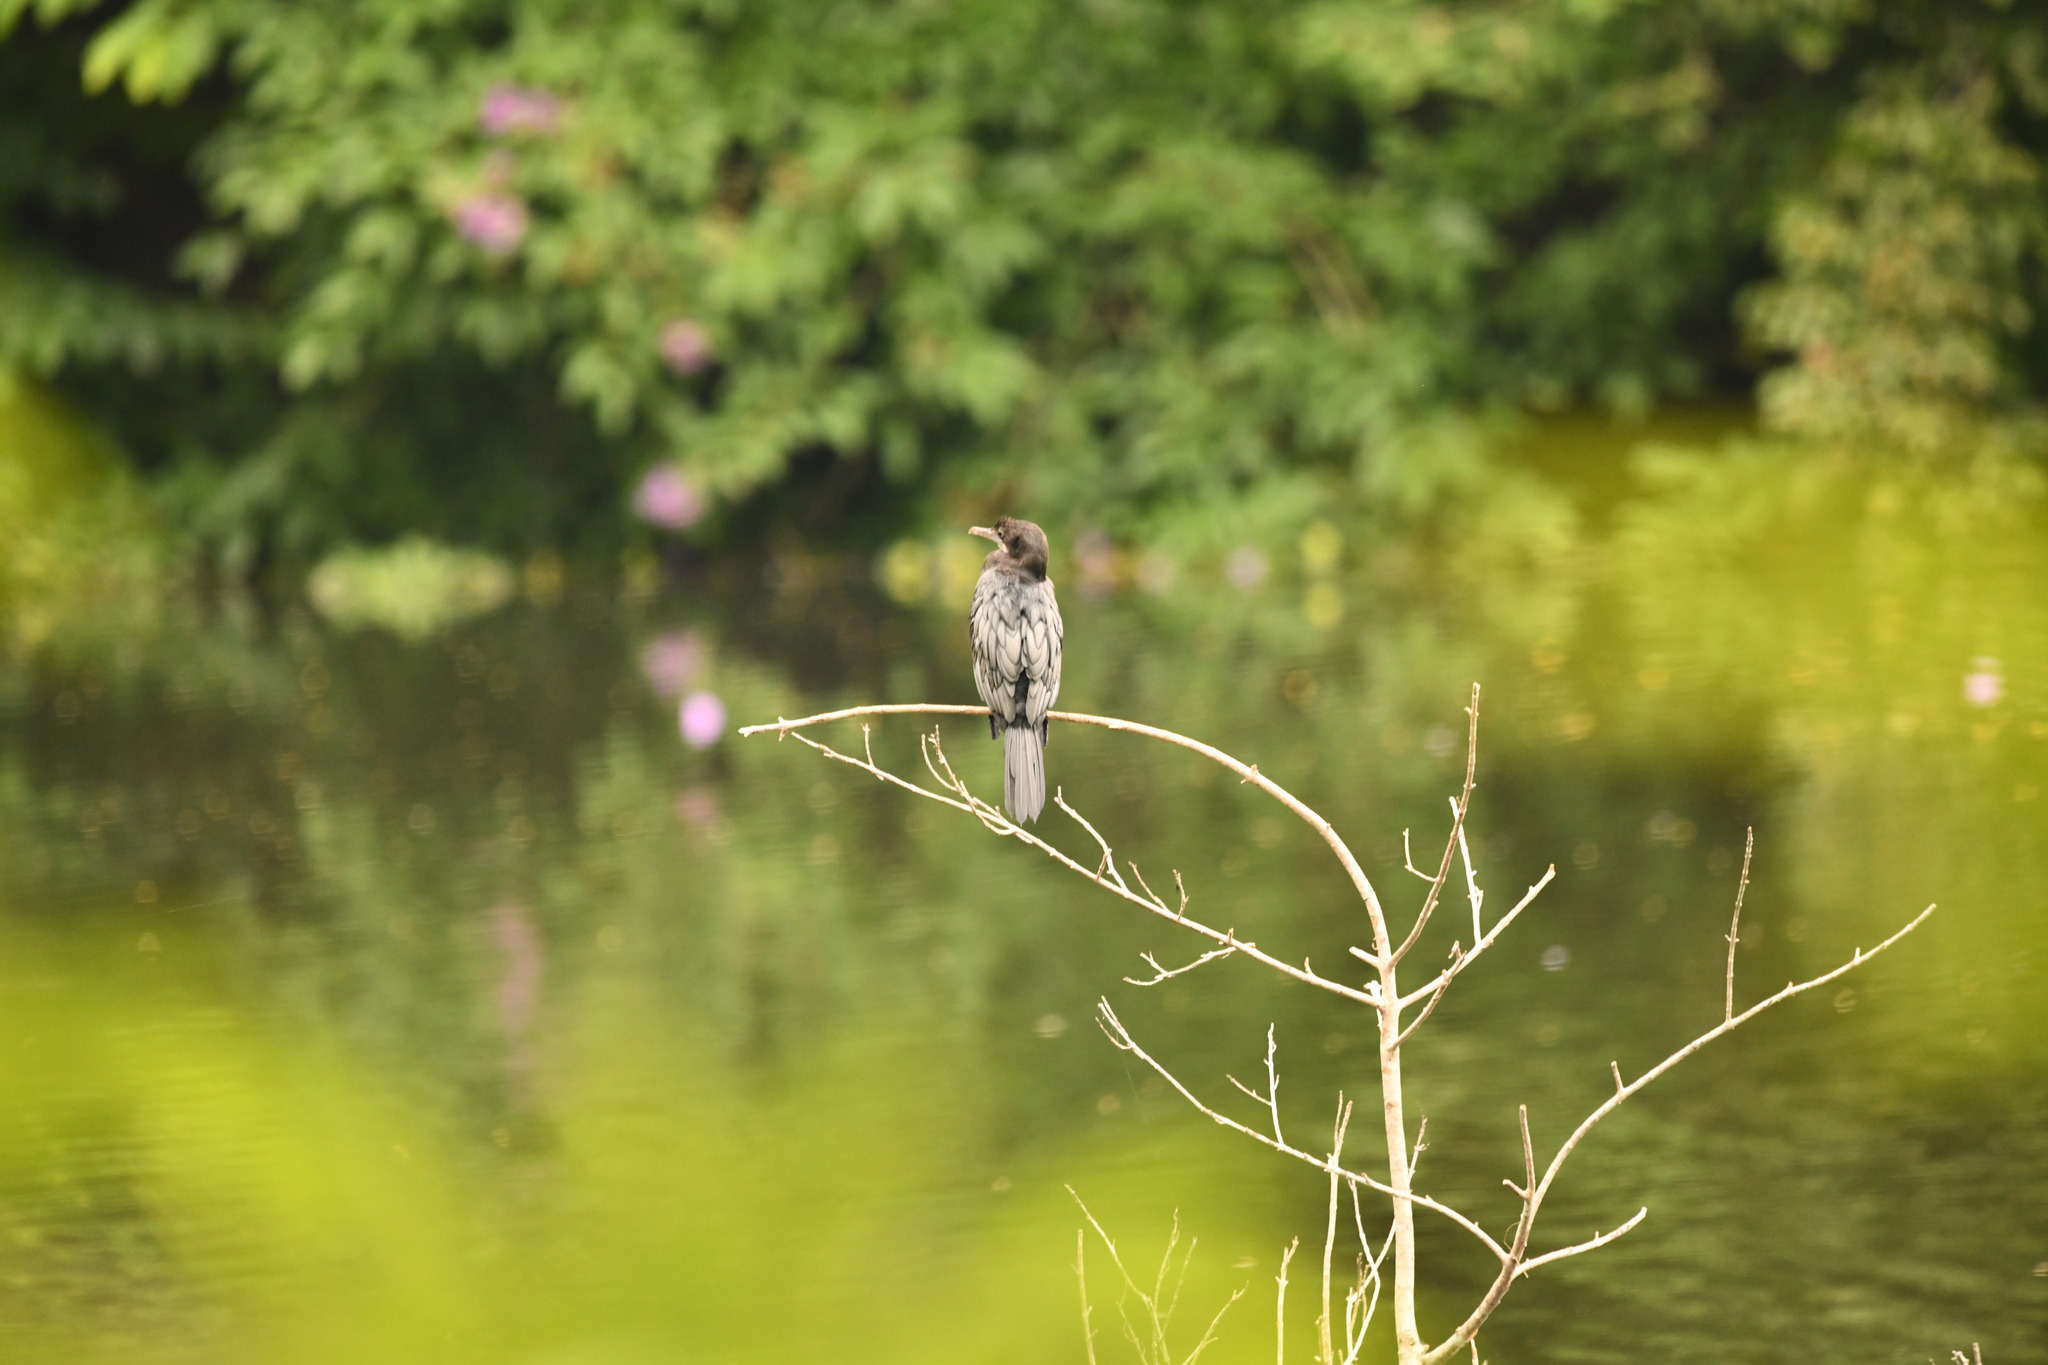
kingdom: Animalia
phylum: Chordata
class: Aves
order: Suliformes
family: Phalacrocoracidae
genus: Microcarbo
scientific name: Microcarbo niger
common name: Little cormorant
